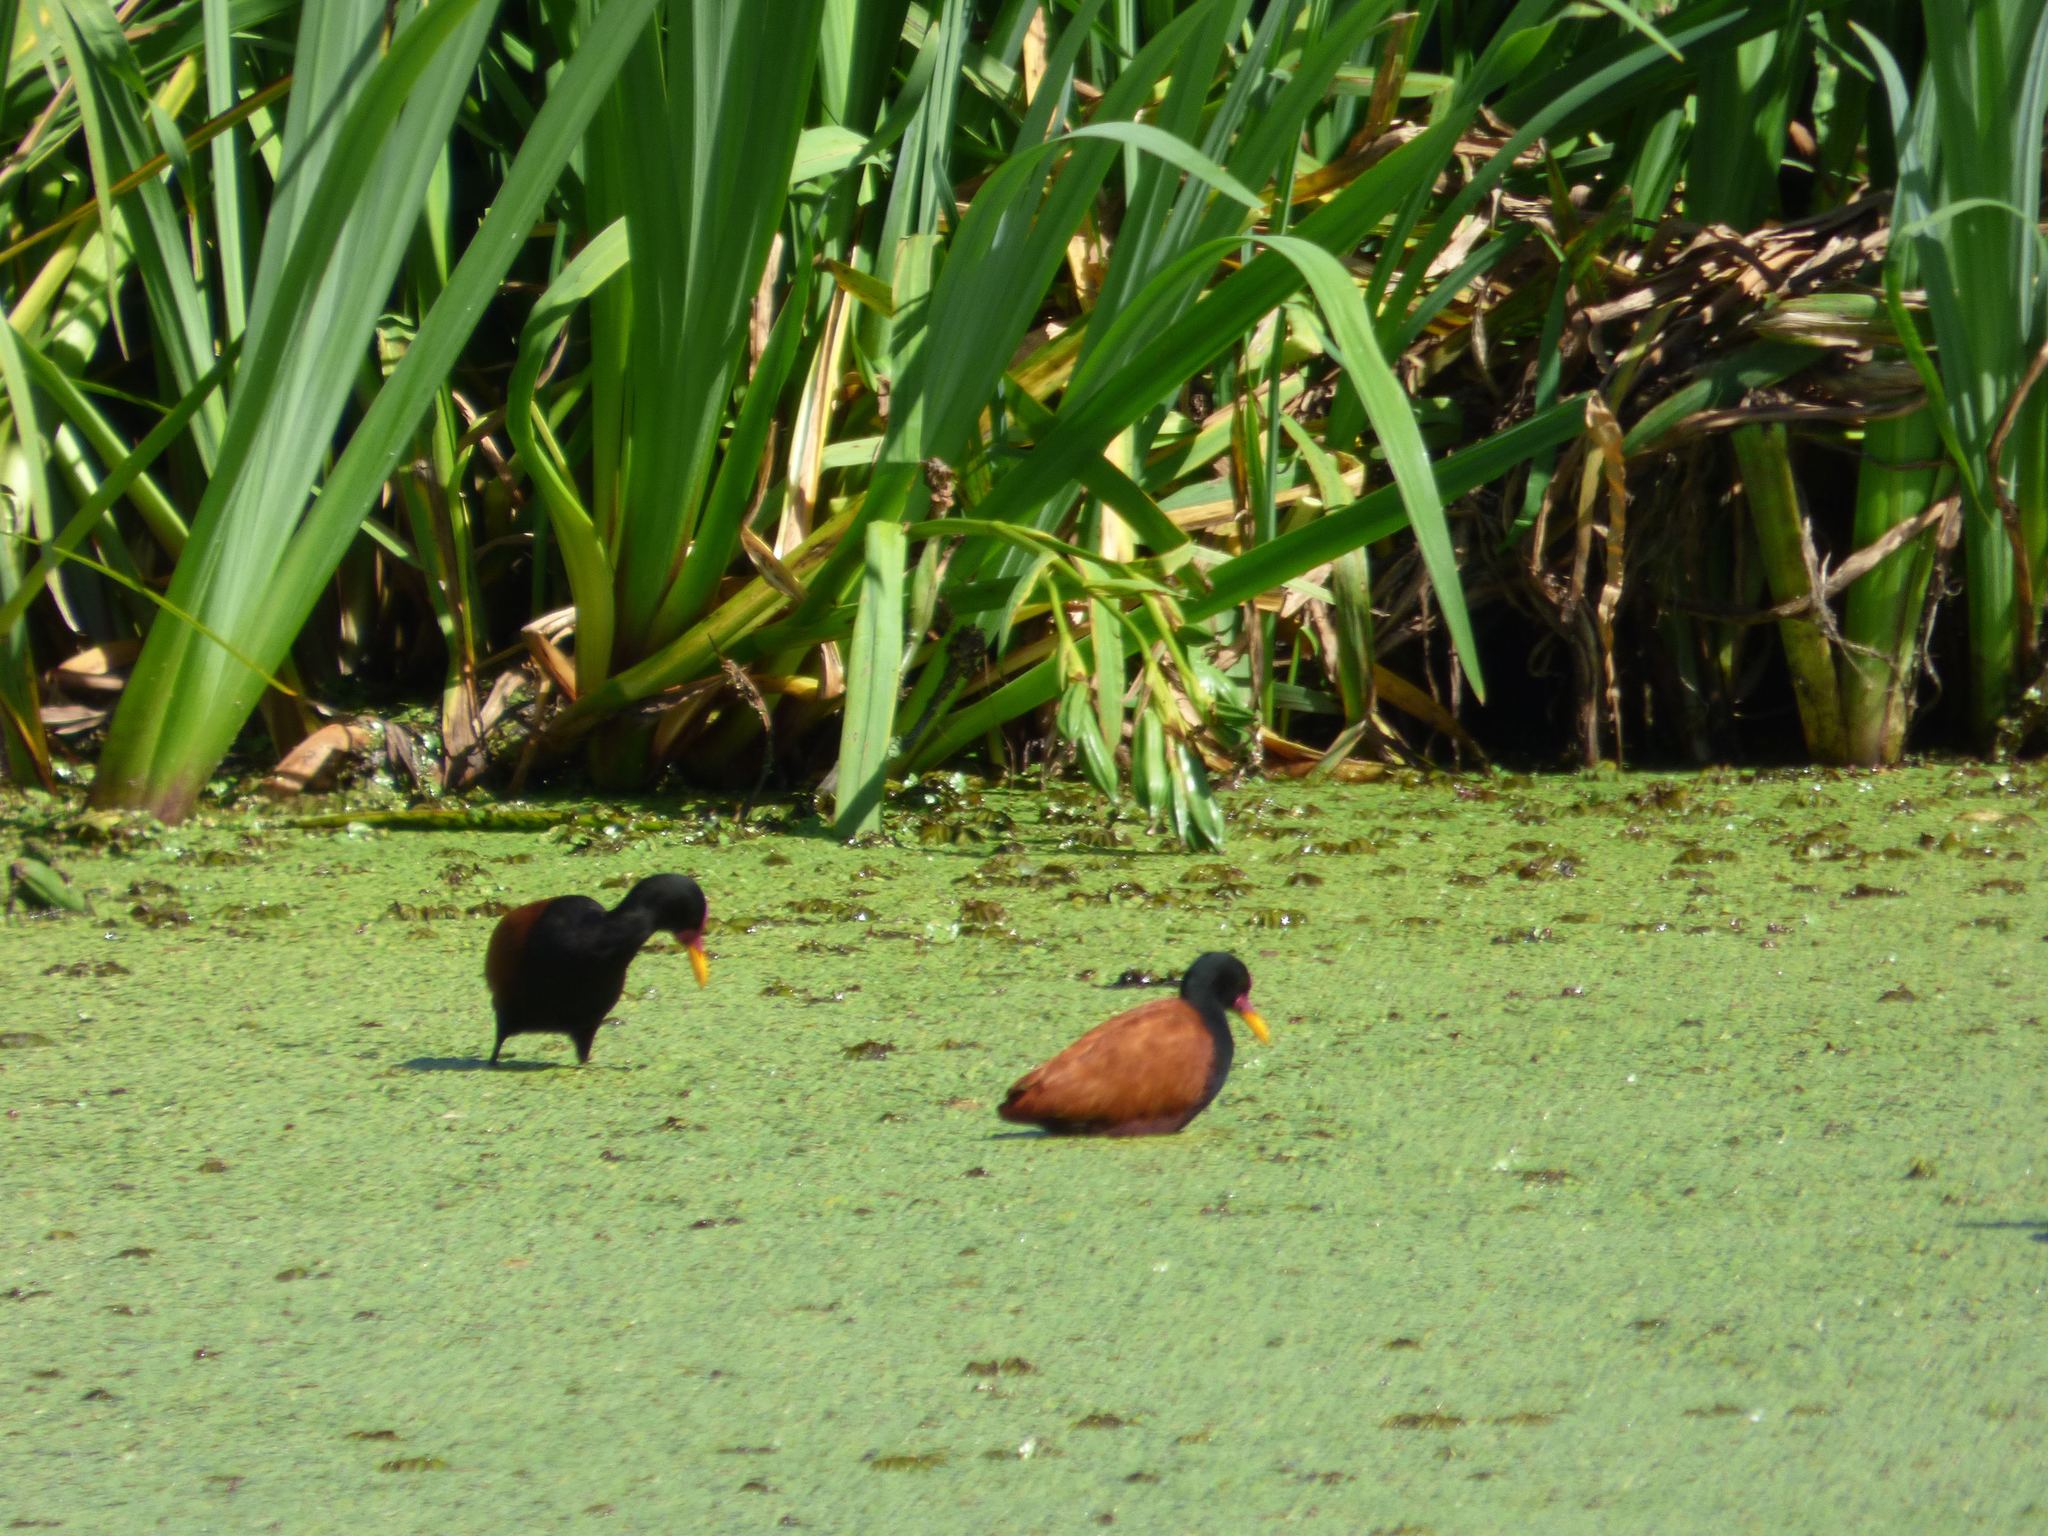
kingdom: Animalia
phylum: Chordata
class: Aves
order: Charadriiformes
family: Jacanidae
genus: Jacana
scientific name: Jacana jacana
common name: Wattled jacana
